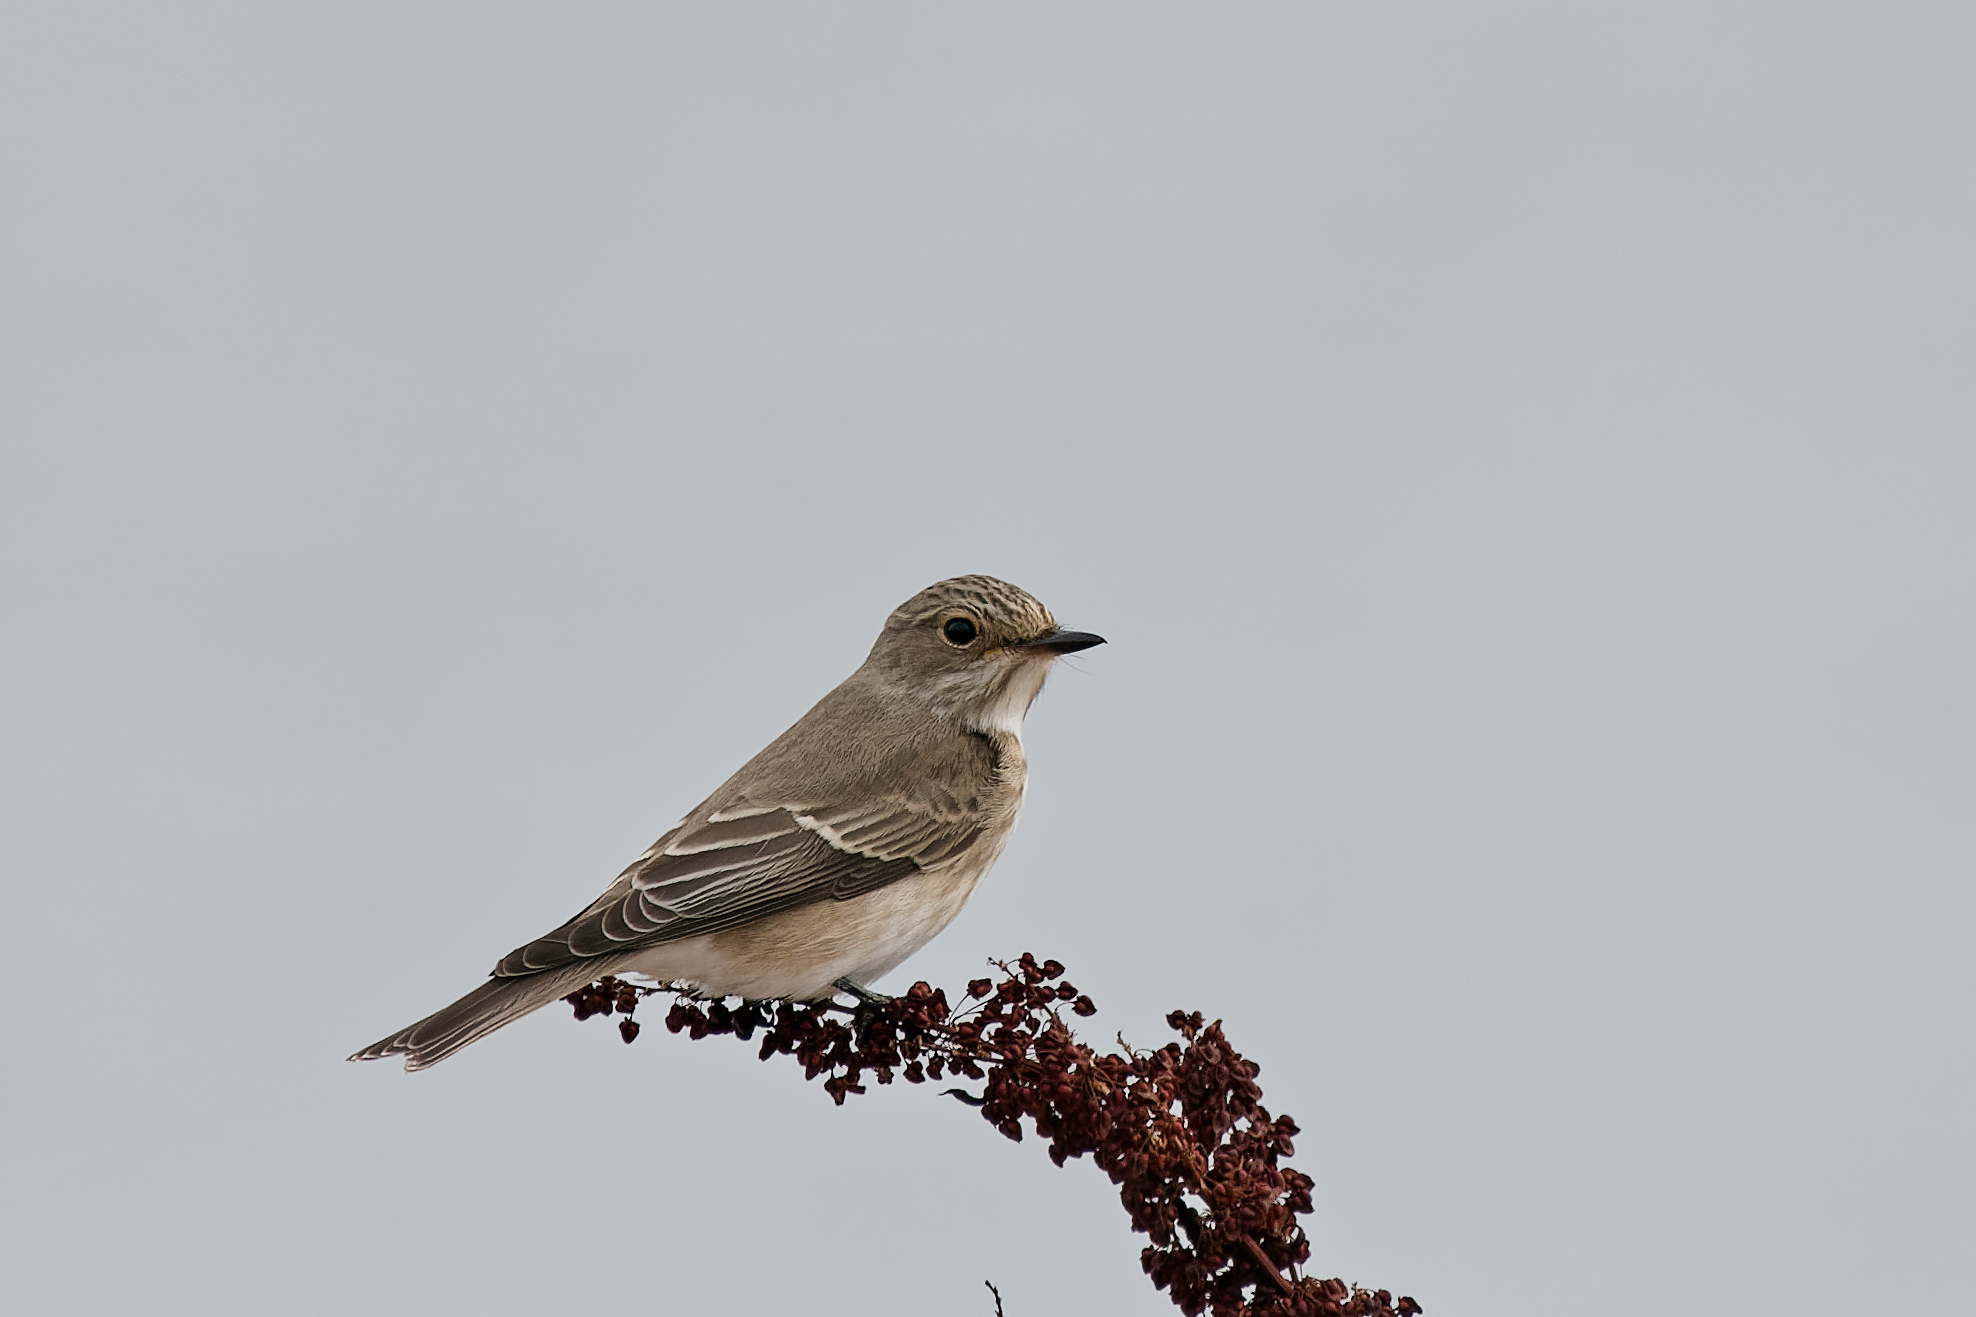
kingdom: Animalia
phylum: Chordata
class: Aves
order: Passeriformes
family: Muscicapidae
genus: Muscicapa
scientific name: Muscicapa striata
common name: Spotted flycatcher
